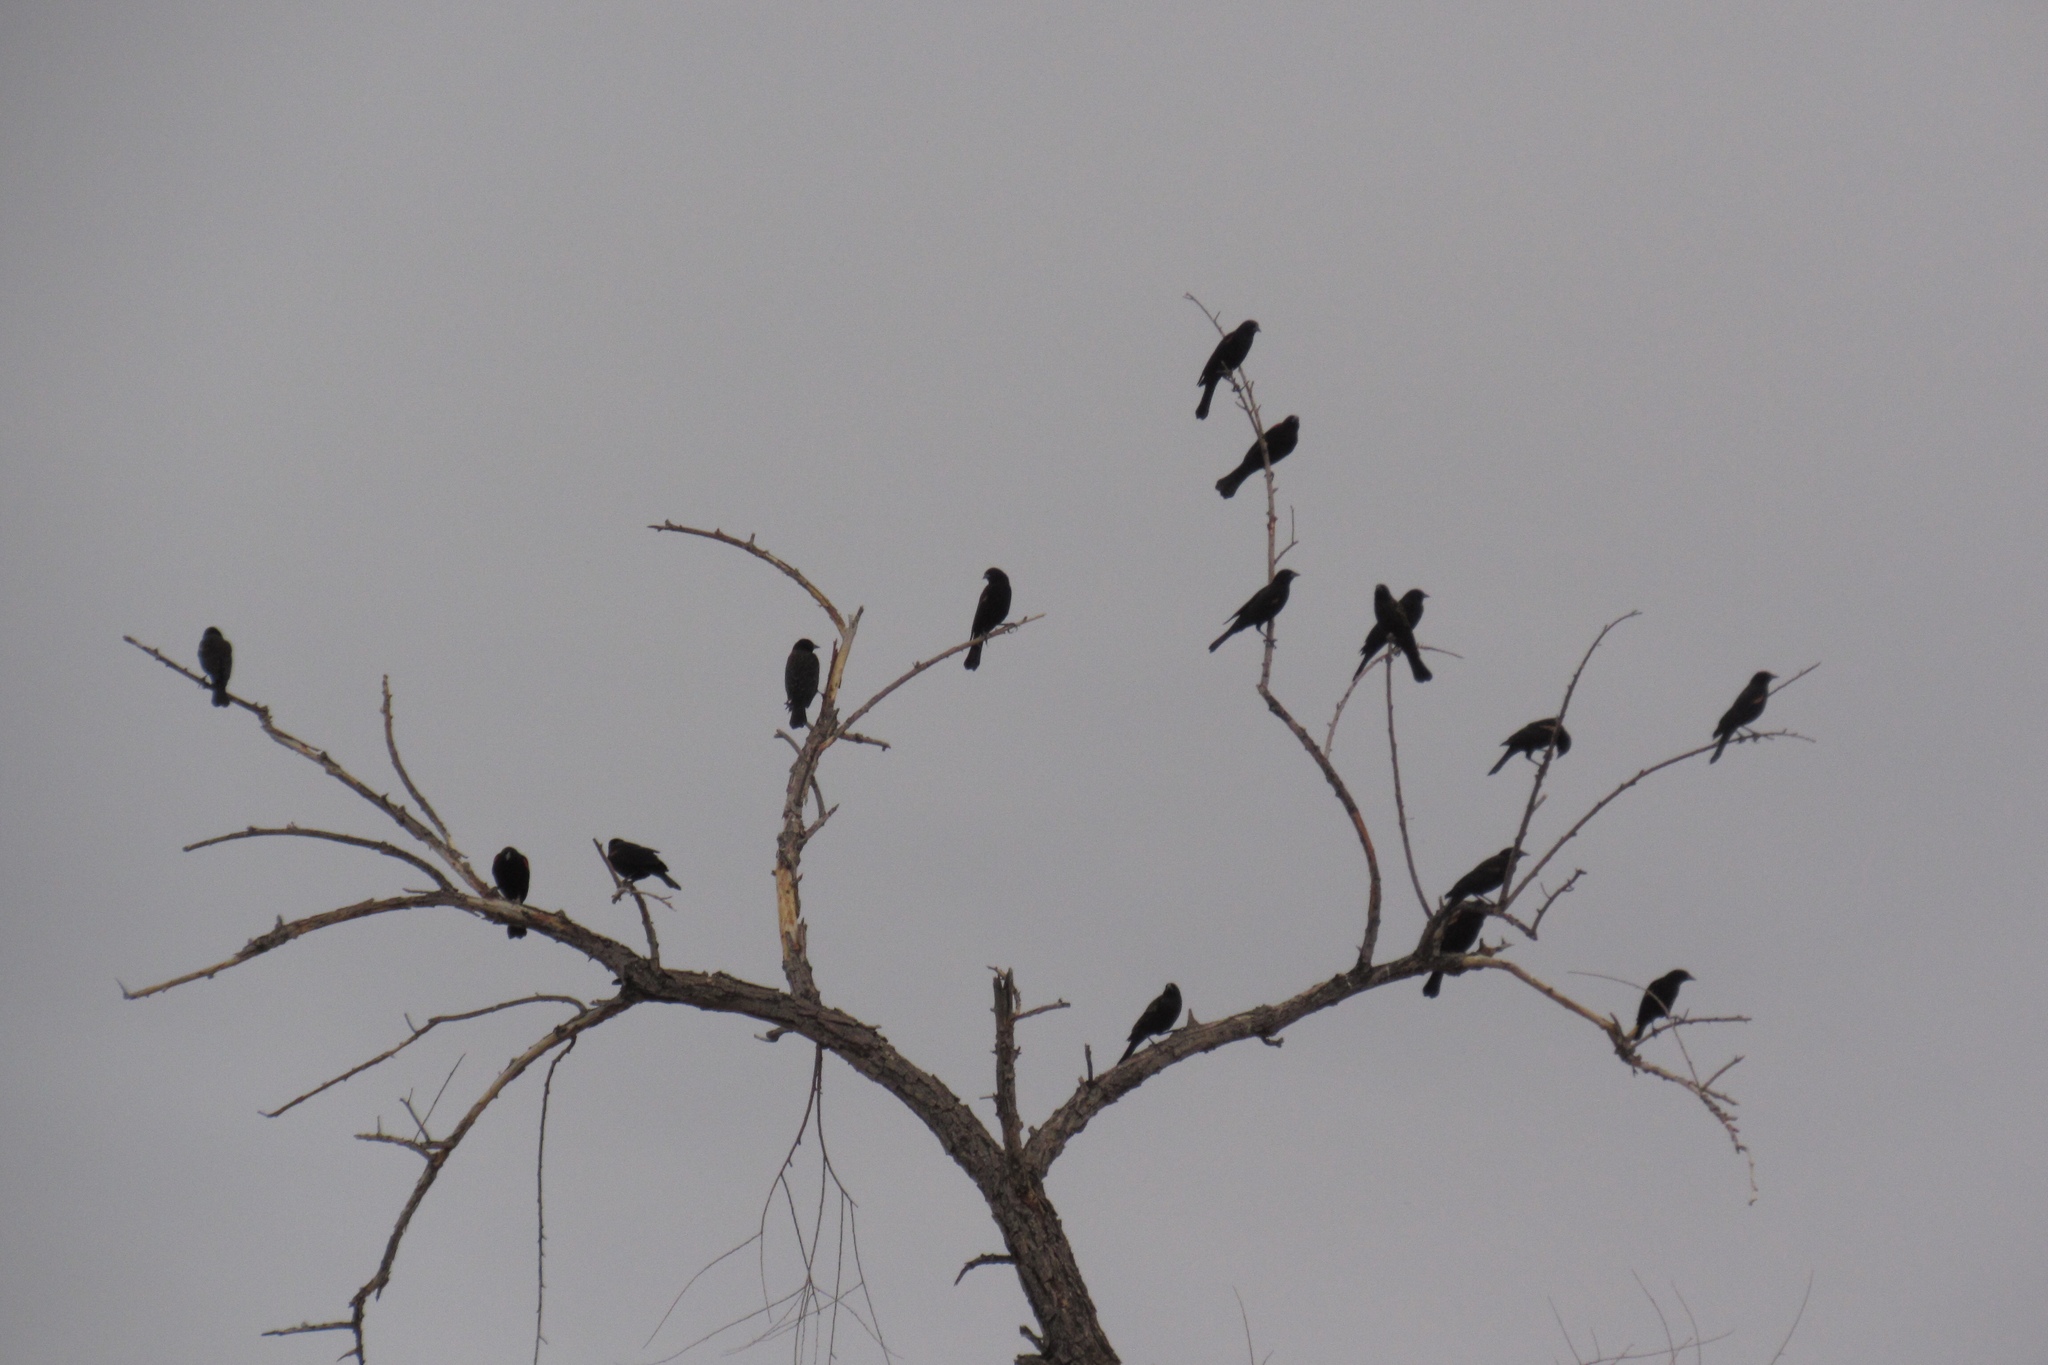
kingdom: Animalia
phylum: Chordata
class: Aves
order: Passeriformes
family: Icteridae
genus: Agelaius
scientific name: Agelaius phoeniceus
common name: Red-winged blackbird
